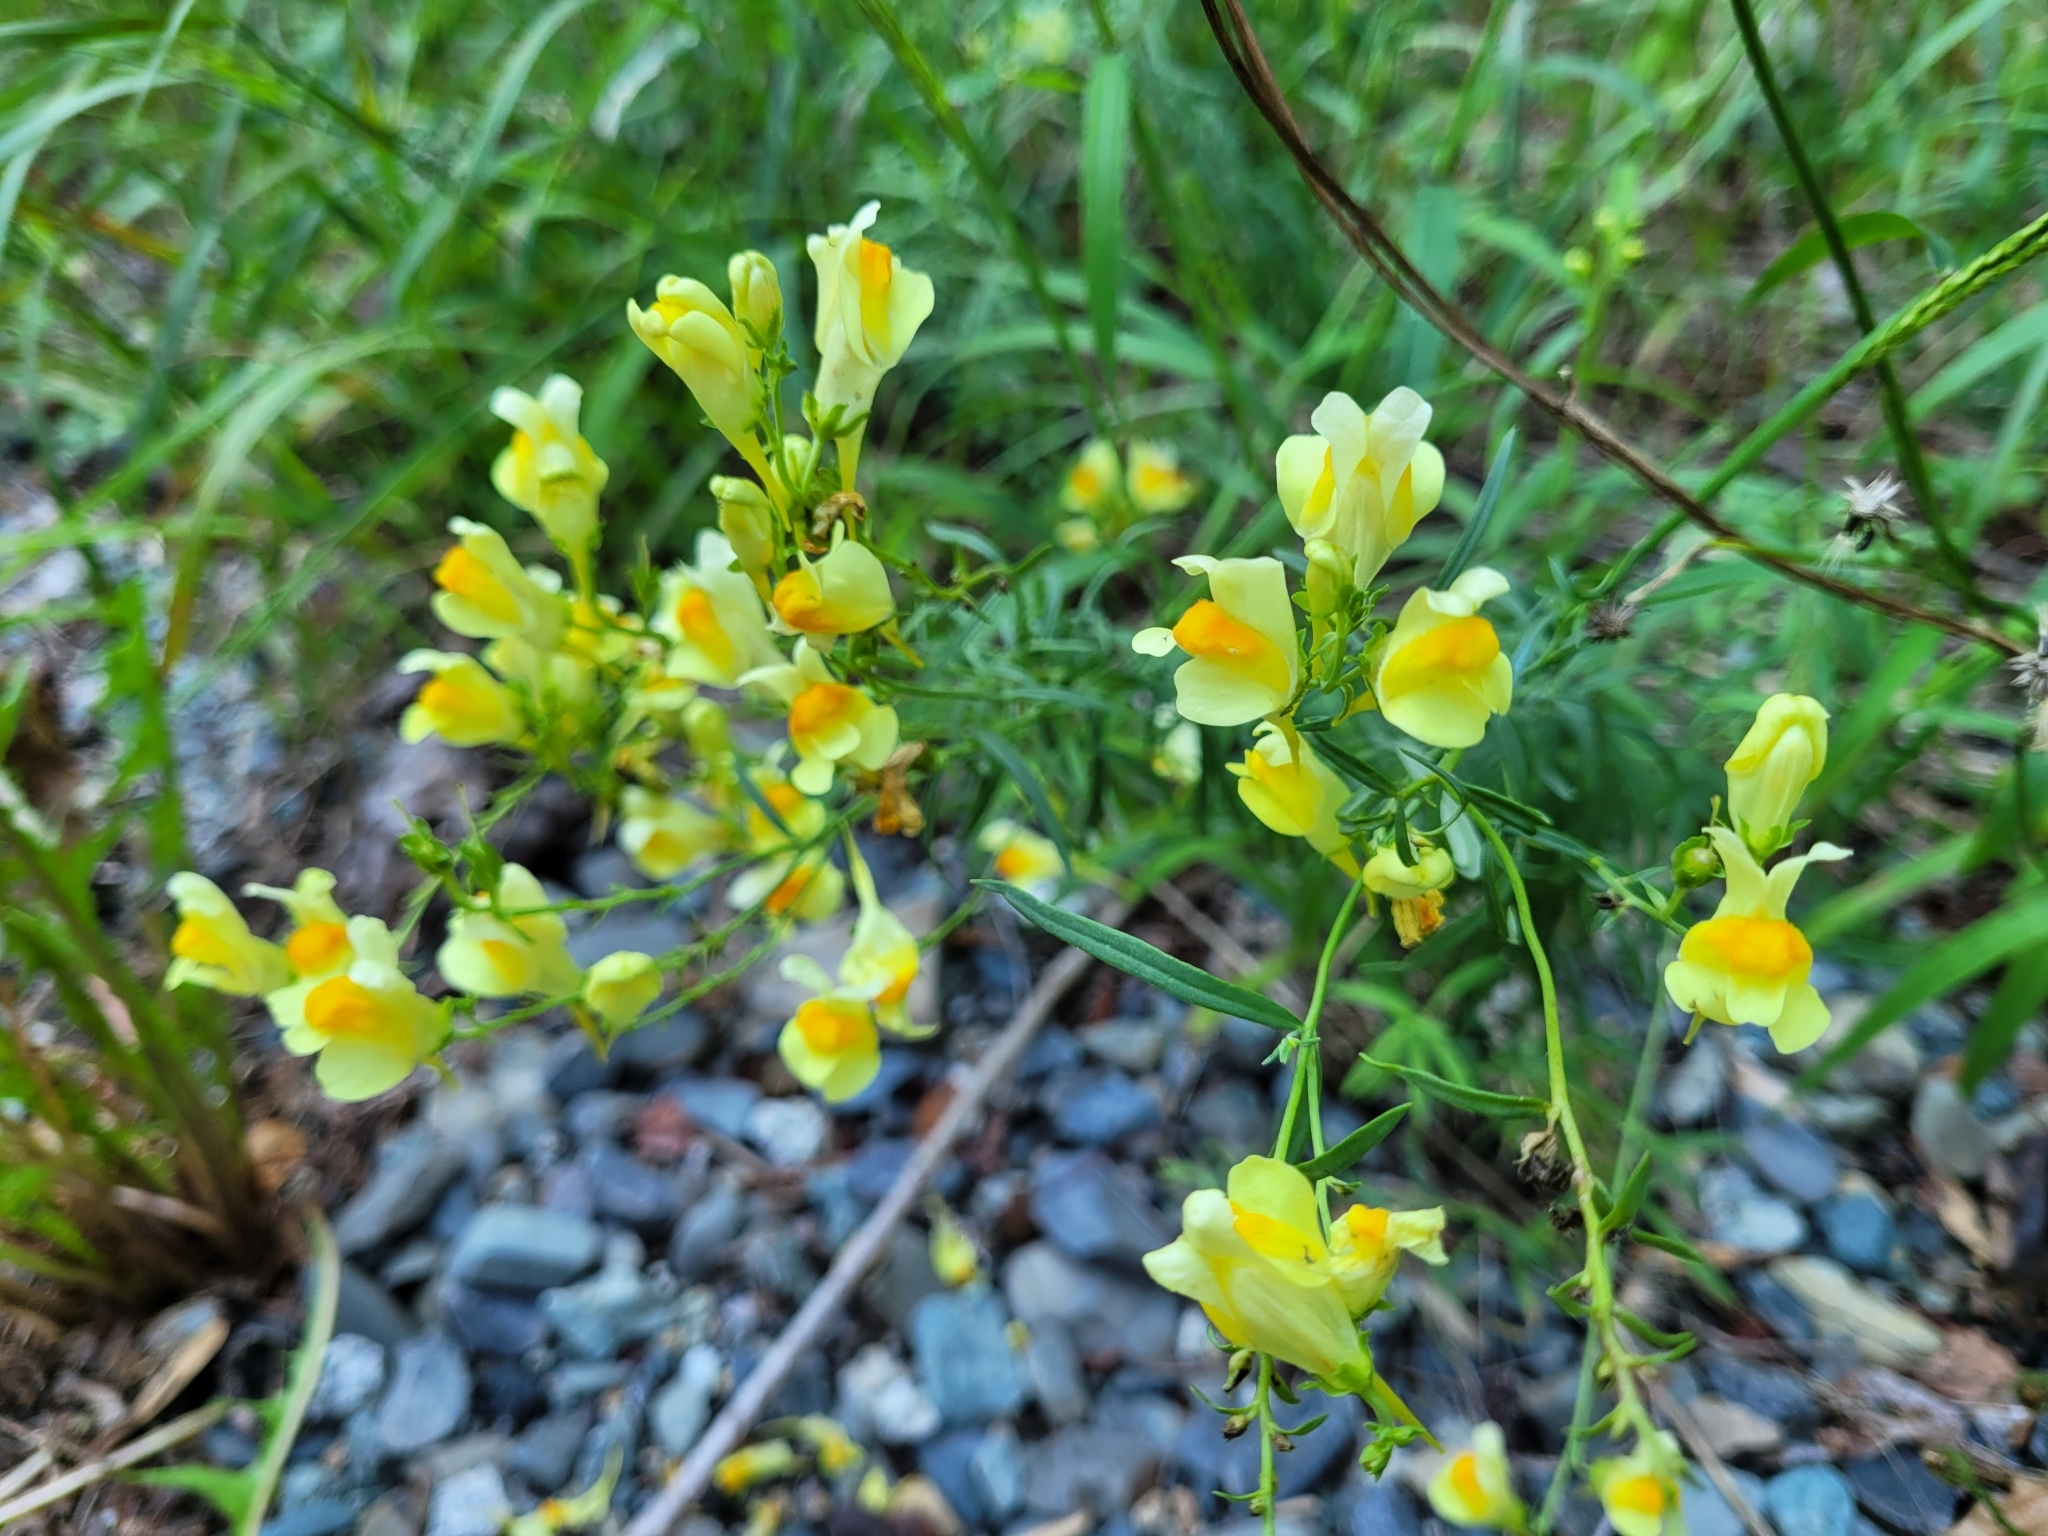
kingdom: Plantae
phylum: Tracheophyta
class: Magnoliopsida
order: Lamiales
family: Plantaginaceae
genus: Linaria
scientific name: Linaria vulgaris
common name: Butter and eggs
